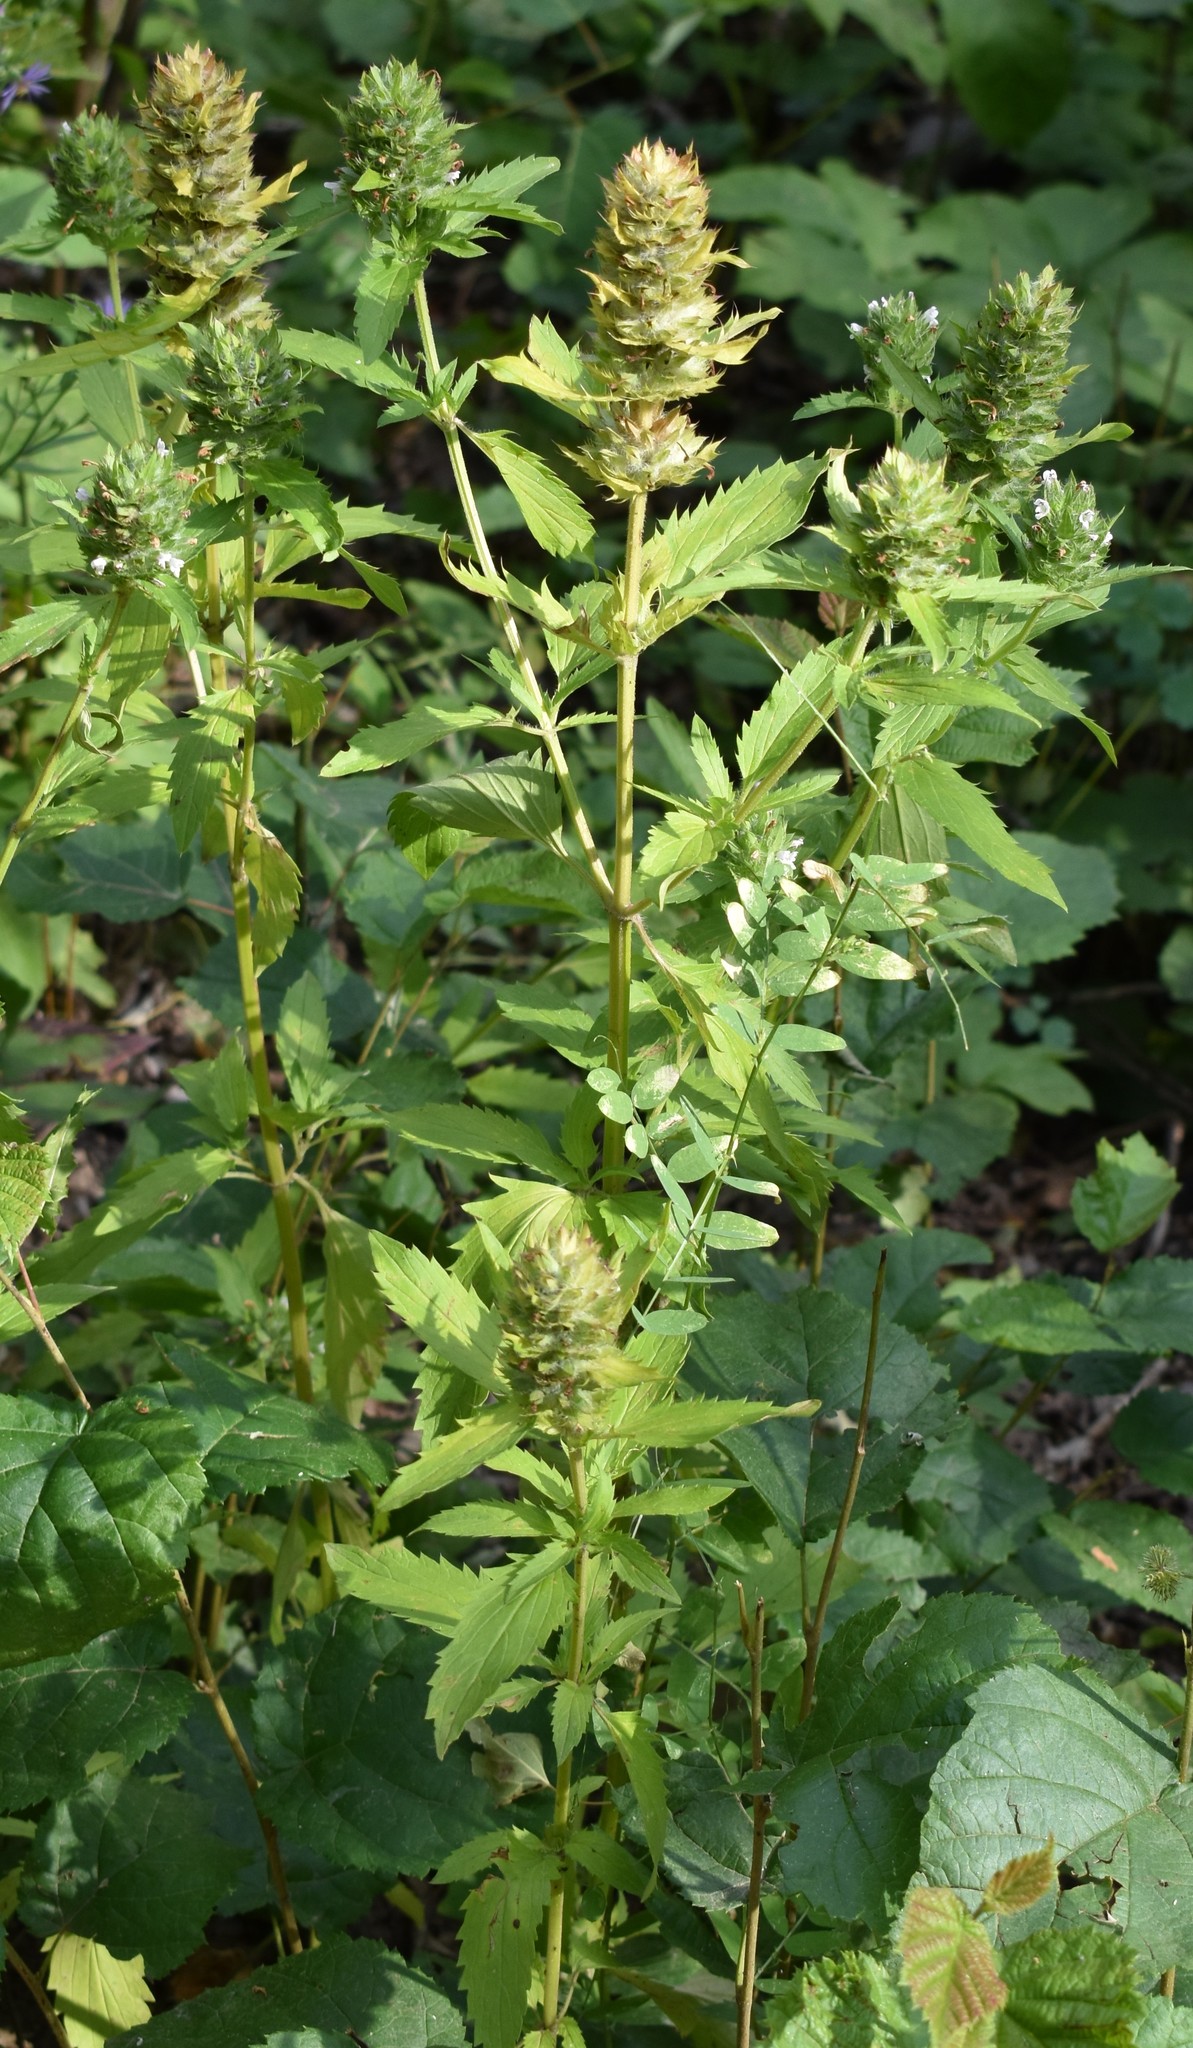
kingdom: Plantae
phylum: Tracheophyta
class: Magnoliopsida
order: Lamiales
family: Lamiaceae
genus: Dracocephalum
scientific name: Dracocephalum parviflorum
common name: American dragonhead
